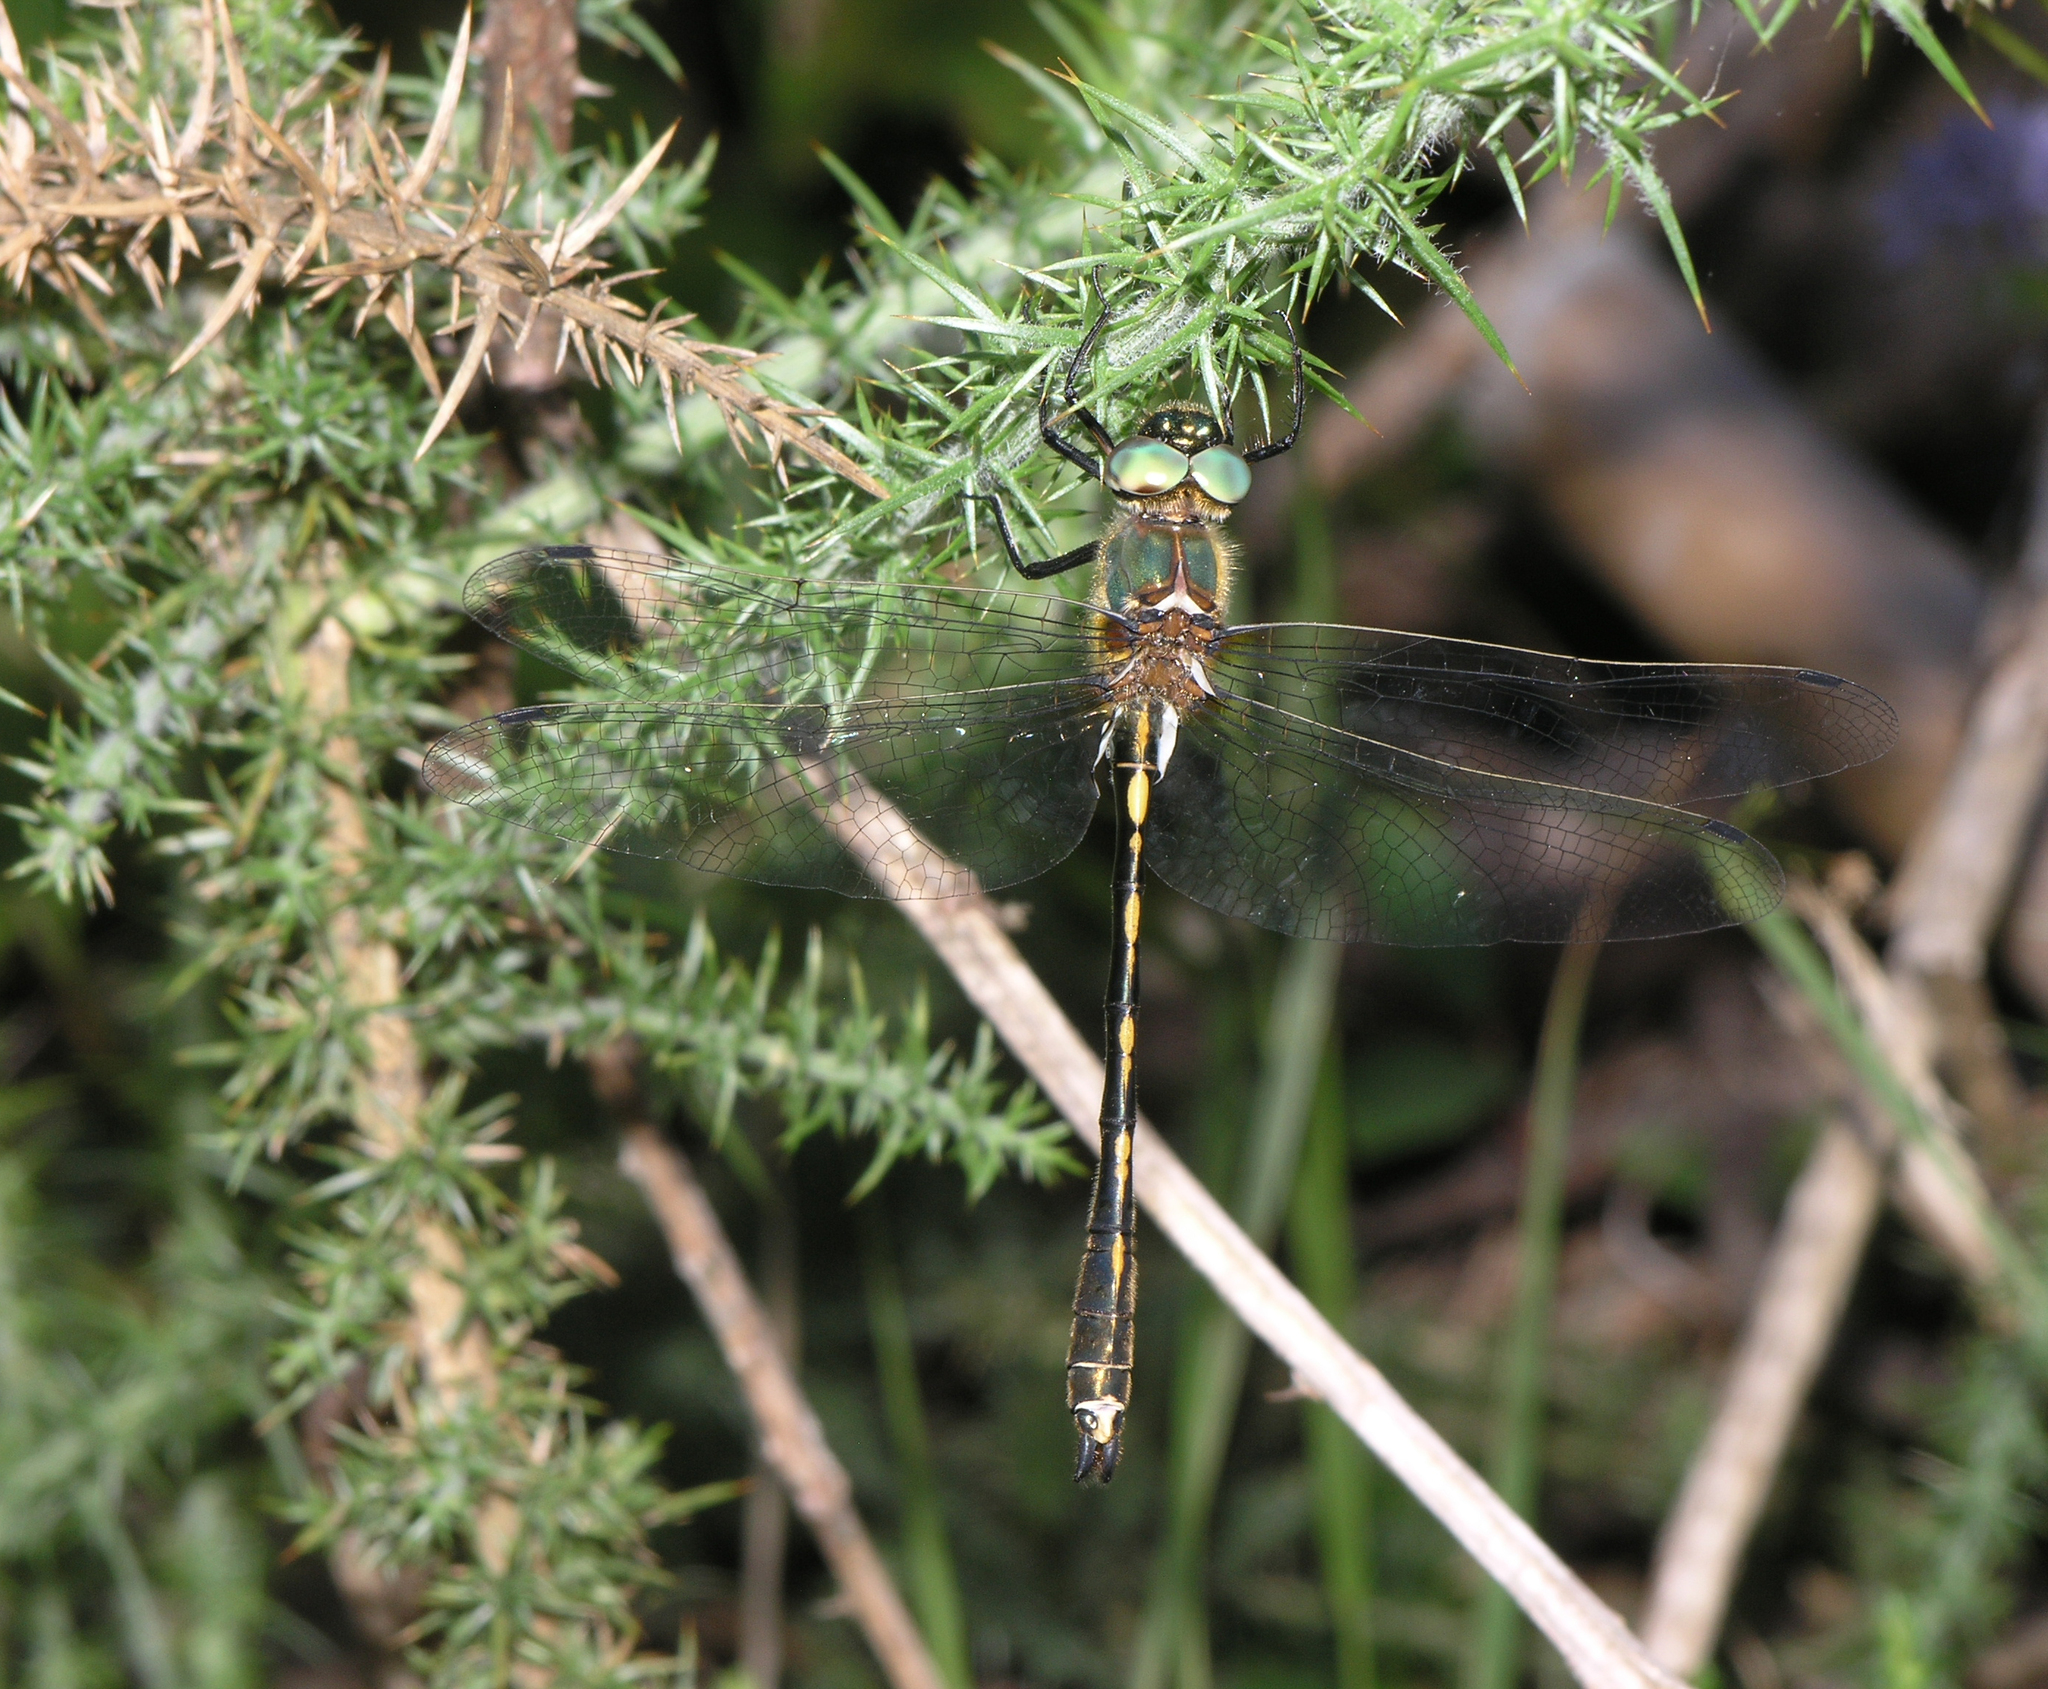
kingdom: Animalia
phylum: Arthropoda
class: Insecta
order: Odonata
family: Corduliidae
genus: Oxygastra
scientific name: Oxygastra curtisii
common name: Orange-spotted emerald
